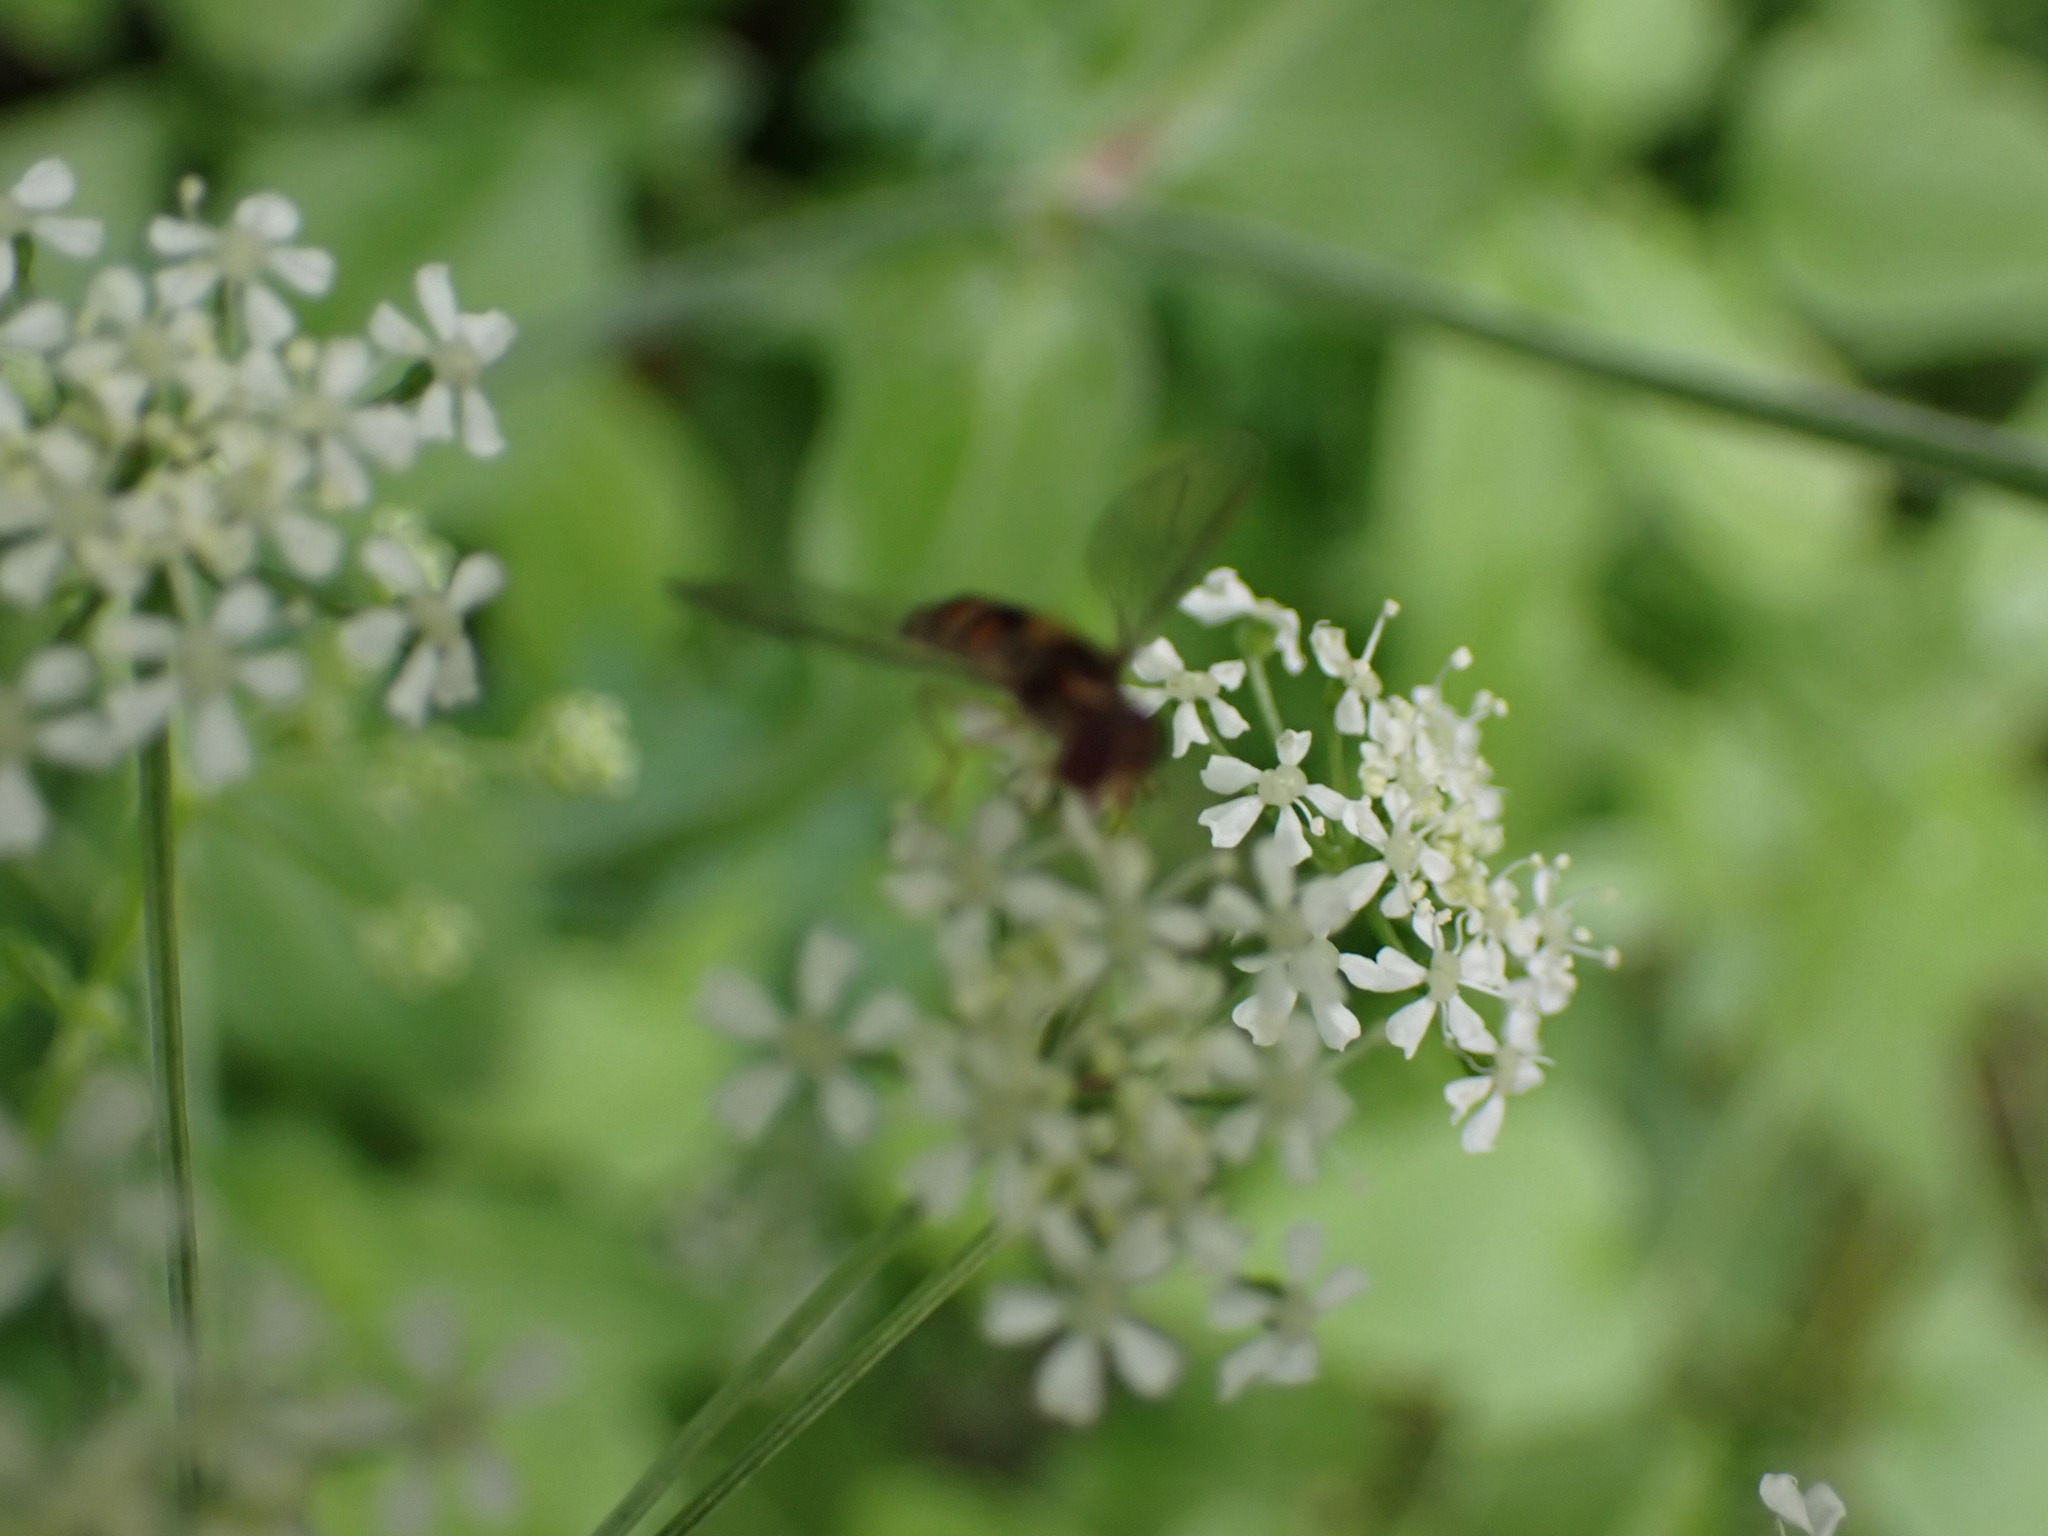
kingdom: Animalia
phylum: Arthropoda
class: Insecta
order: Diptera
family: Syrphidae
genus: Episyrphus
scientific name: Episyrphus balteatus
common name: Marmalade hoverfly
